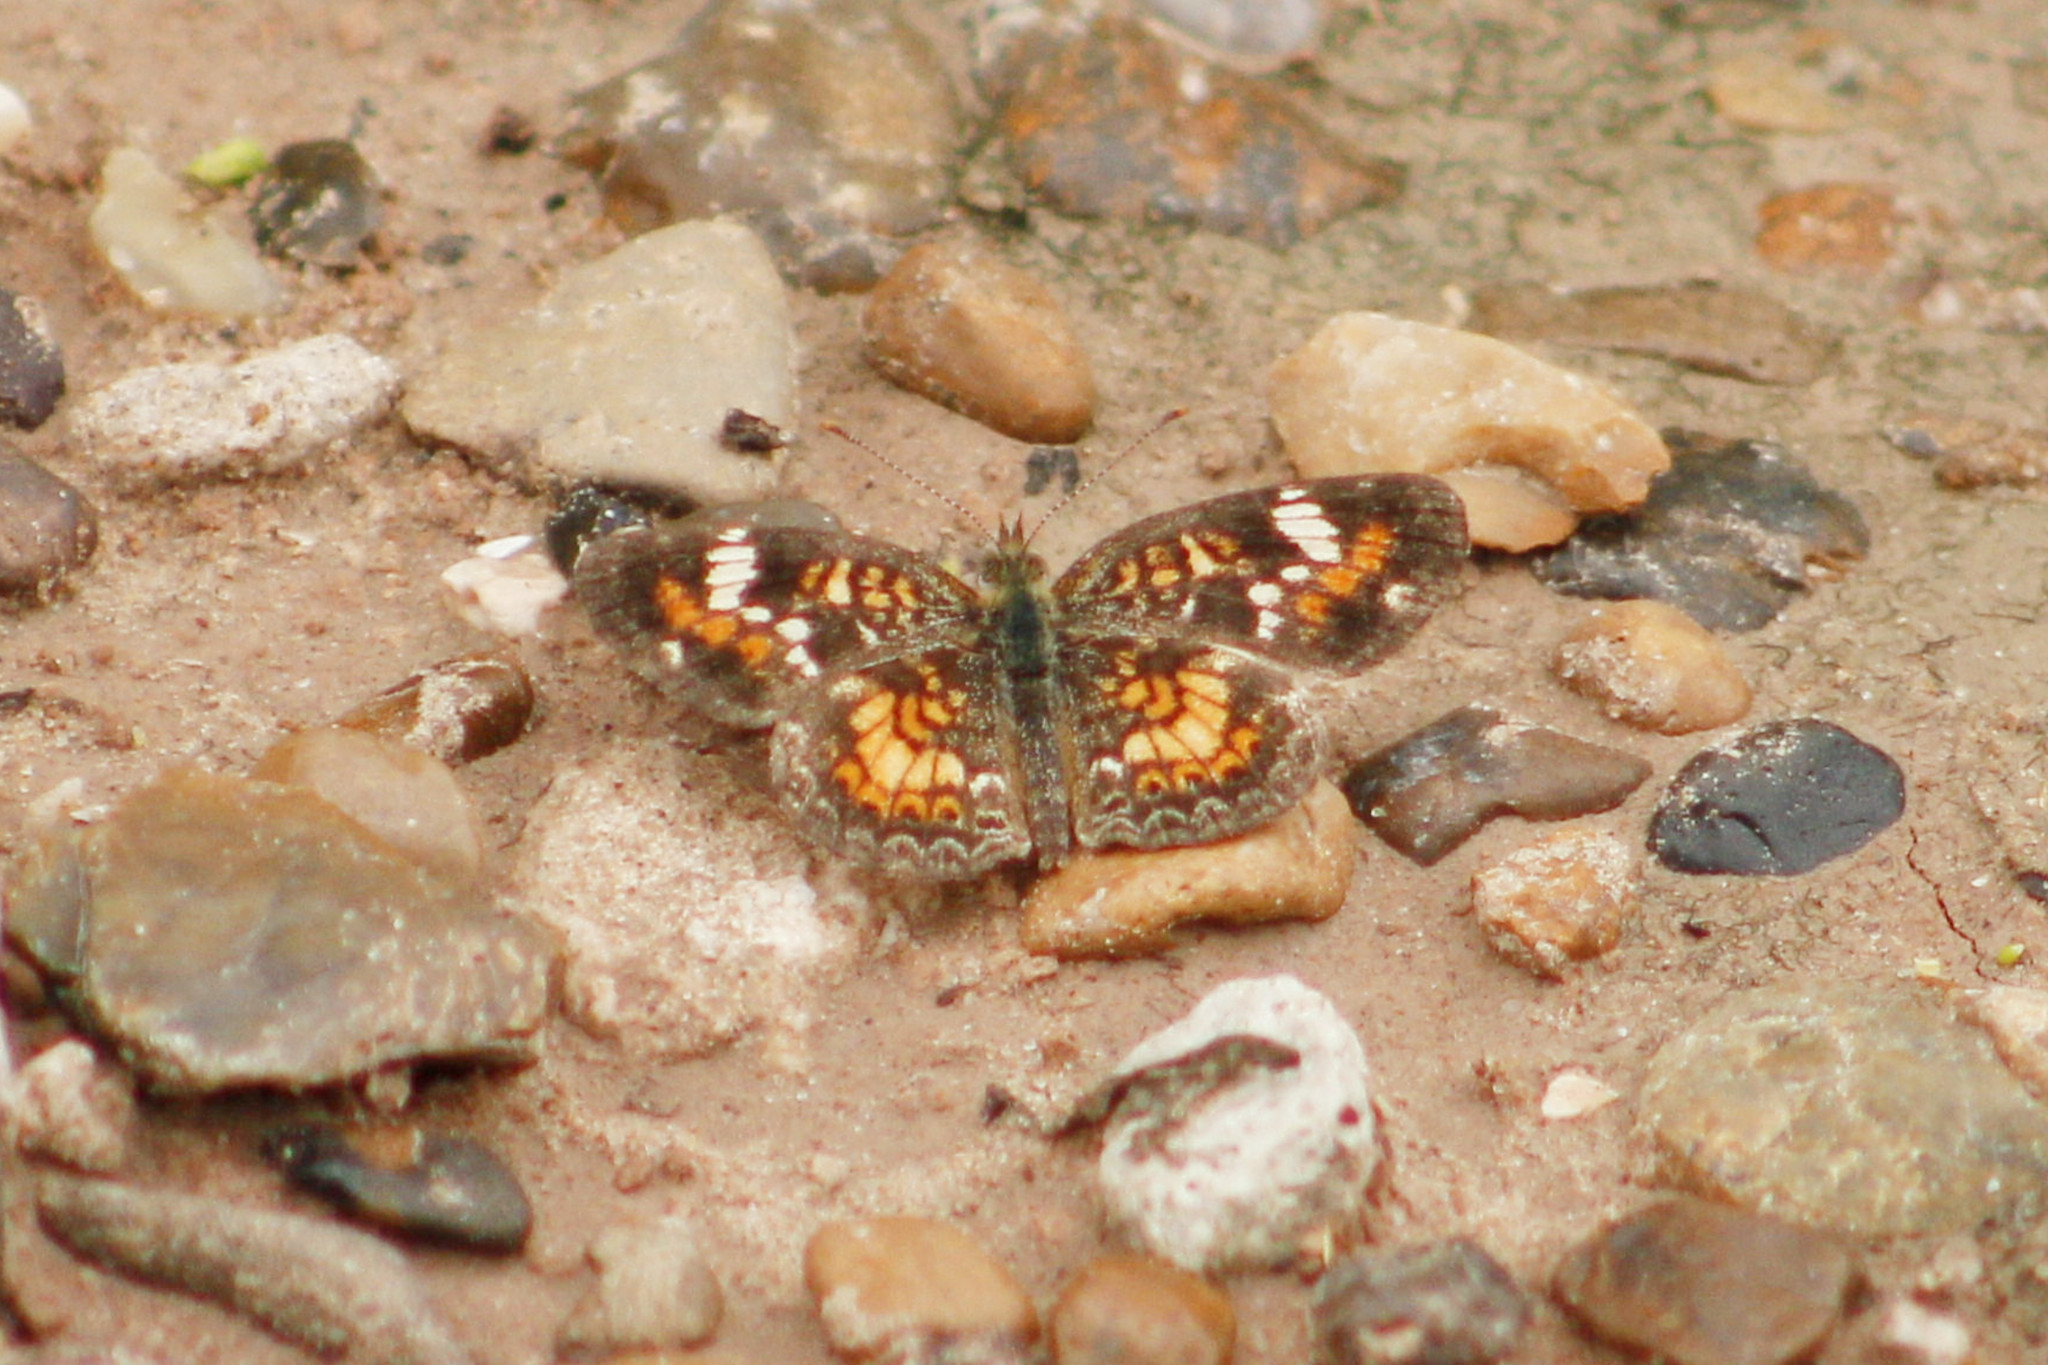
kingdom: Animalia
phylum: Arthropoda
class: Insecta
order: Lepidoptera
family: Nymphalidae
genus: Phyciodes
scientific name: Phyciodes phaon
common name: Phaon crescent
